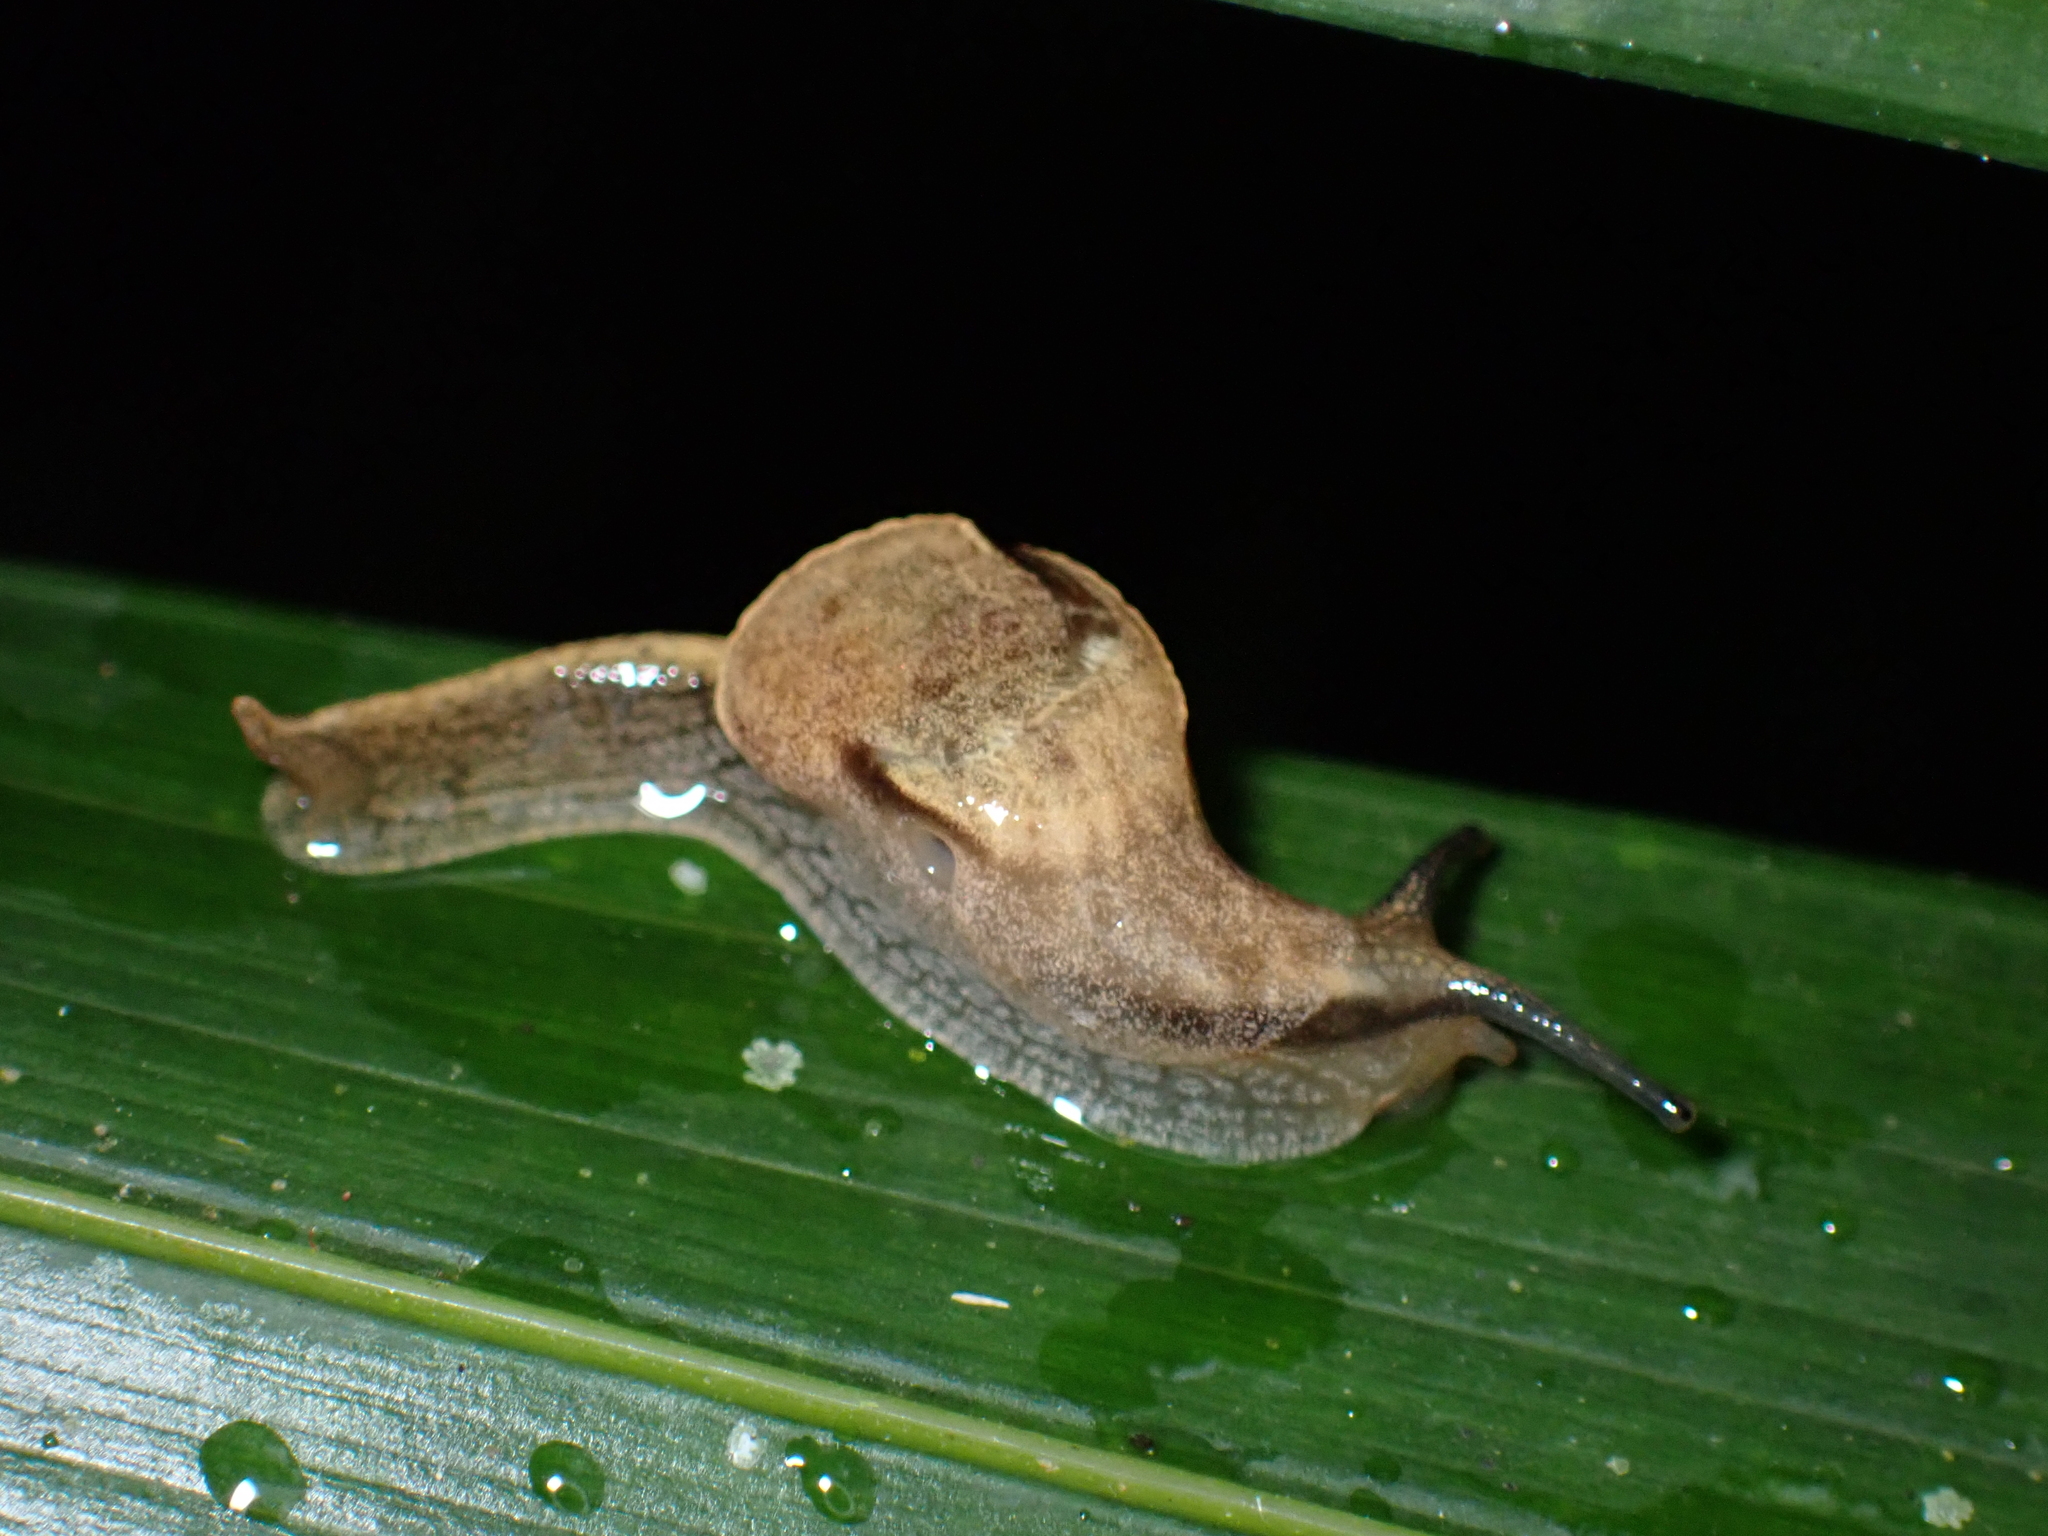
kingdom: Animalia
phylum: Mollusca
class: Gastropoda
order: Stylommatophora
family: Helicarionidae
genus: Ubiquitarion
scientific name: Ubiquitarion iridis
